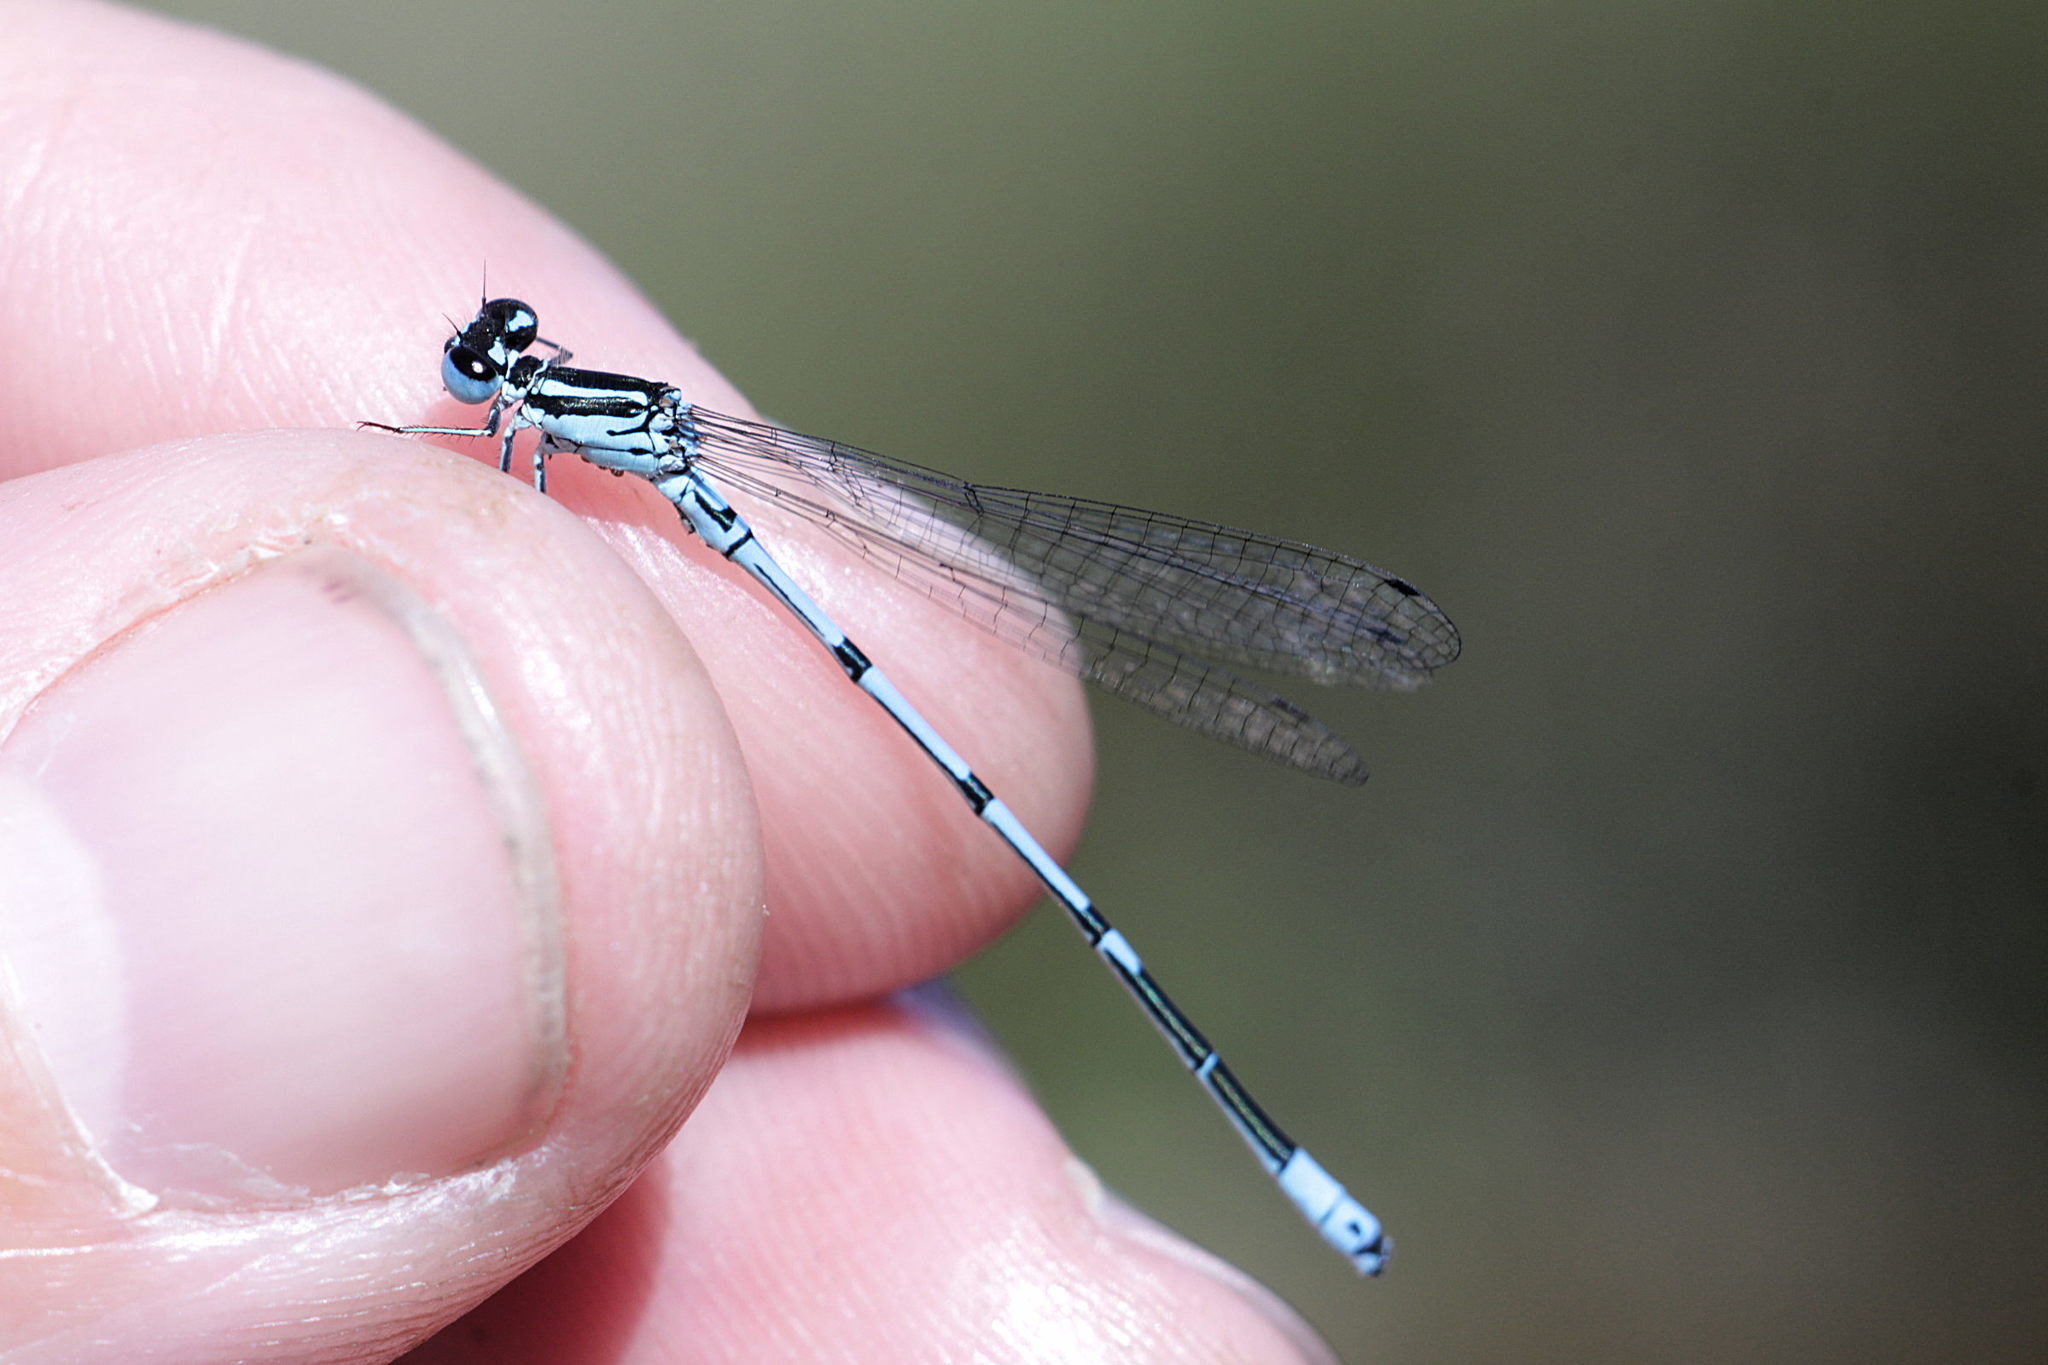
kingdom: Animalia
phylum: Arthropoda
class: Insecta
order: Odonata
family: Coenagrionidae
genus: Coenagrion
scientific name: Coenagrion puella
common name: Azure damselfly
